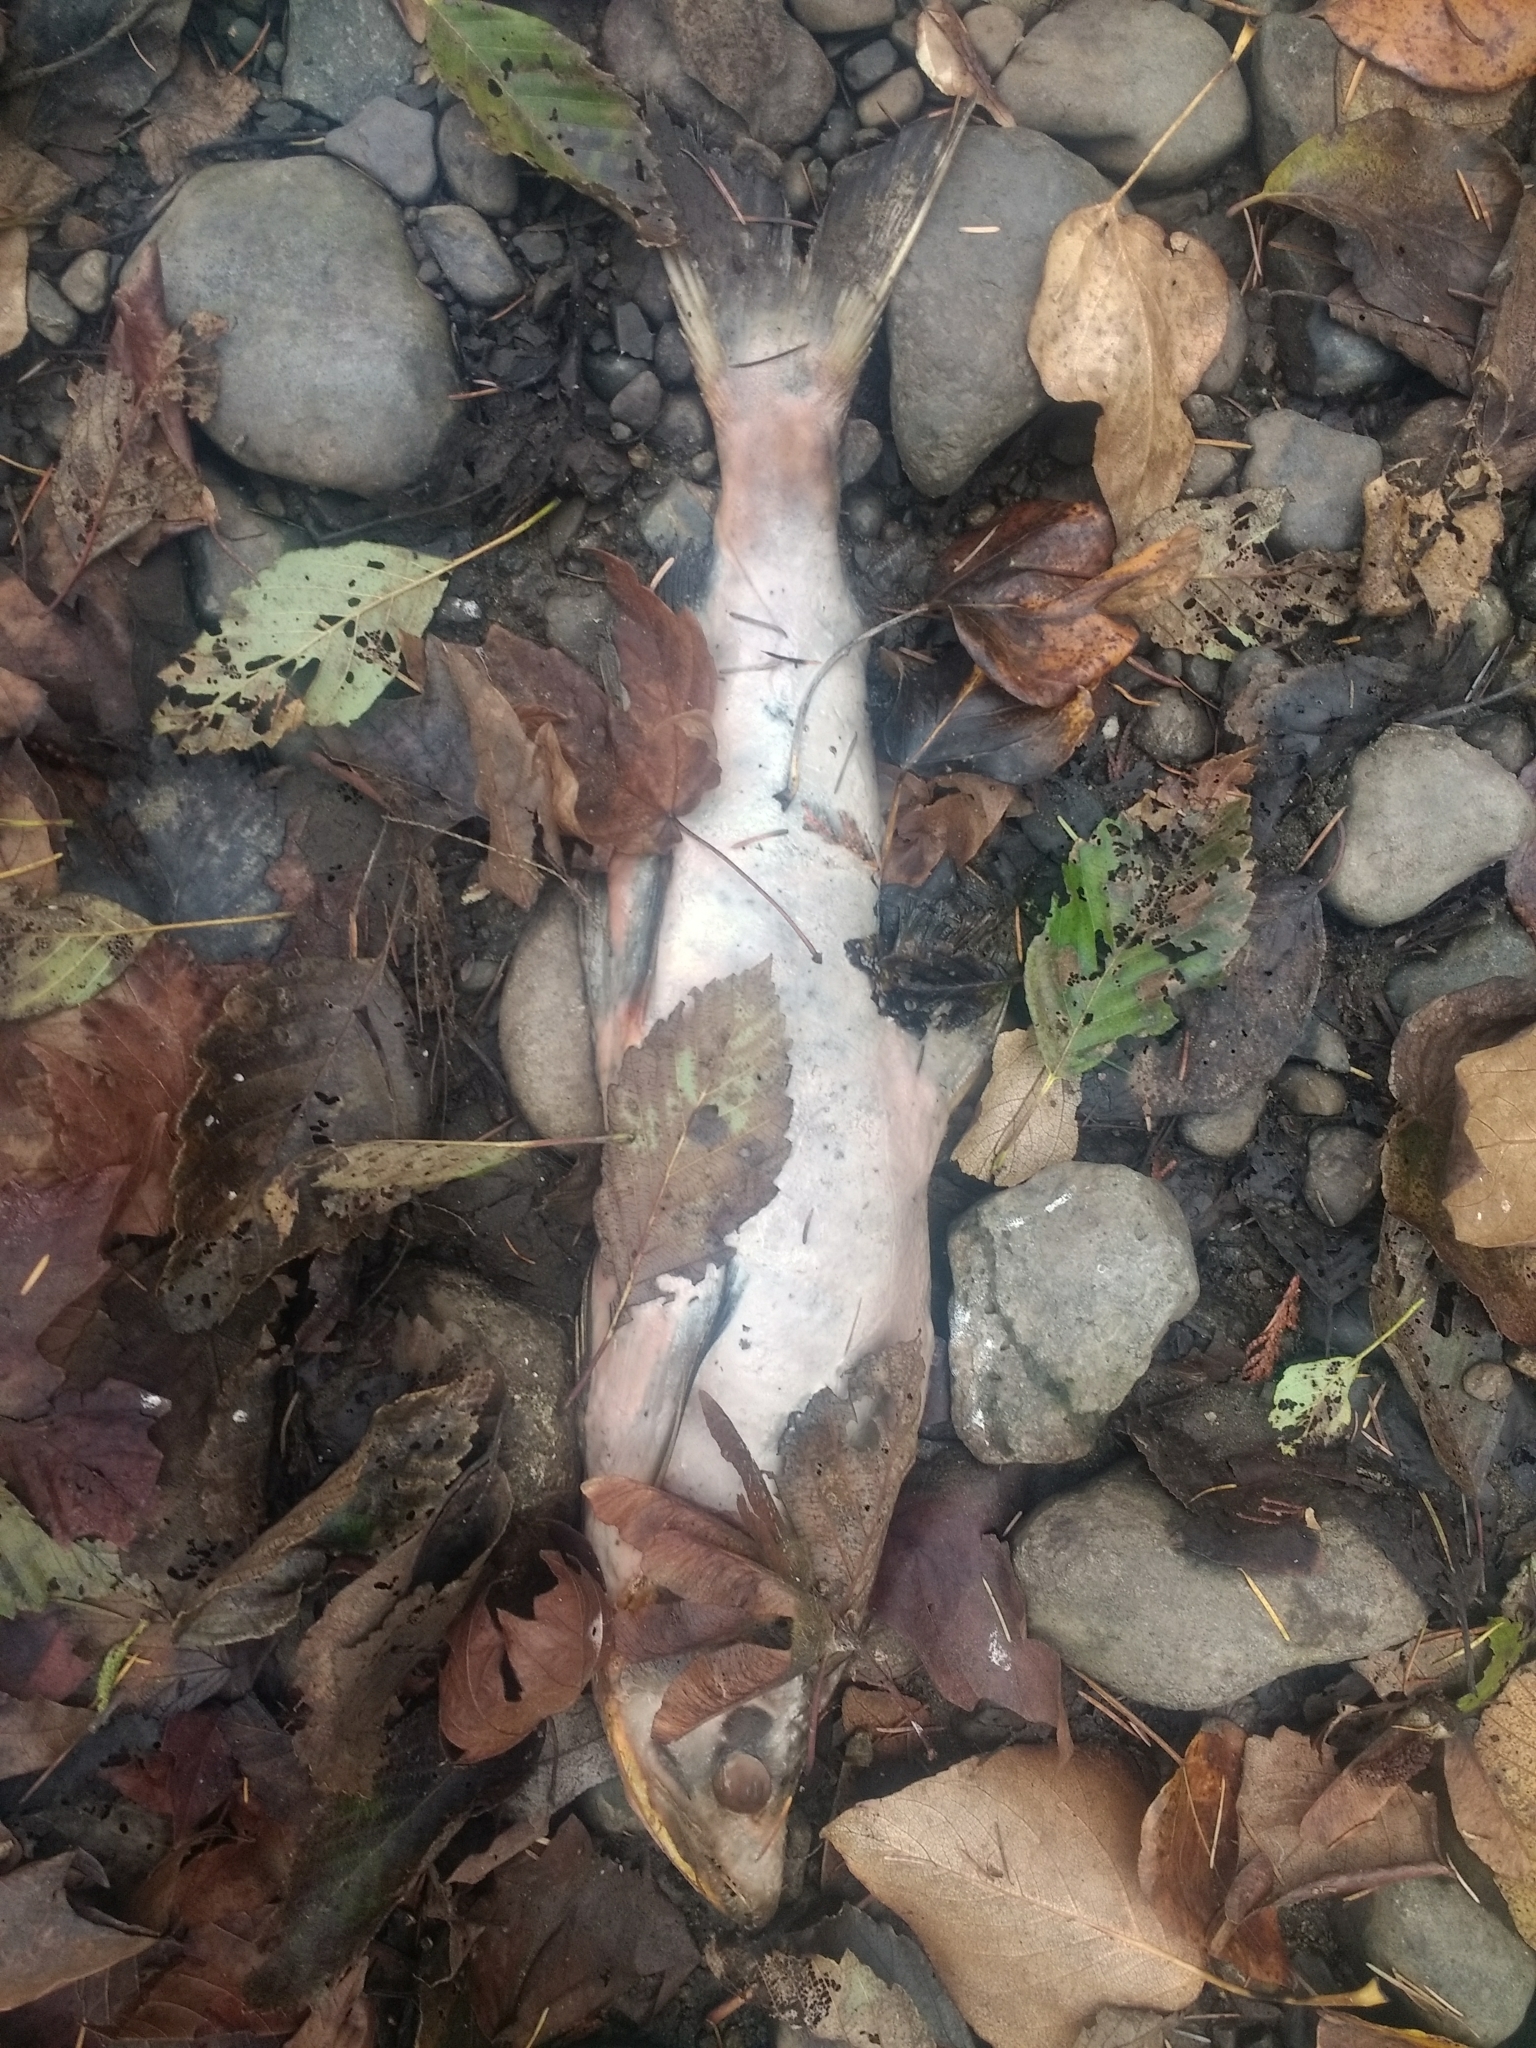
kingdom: Animalia
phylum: Chordata
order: Salmoniformes
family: Salmonidae
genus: Oncorhynchus
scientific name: Oncorhynchus gorbuscha
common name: Humpback salmon
